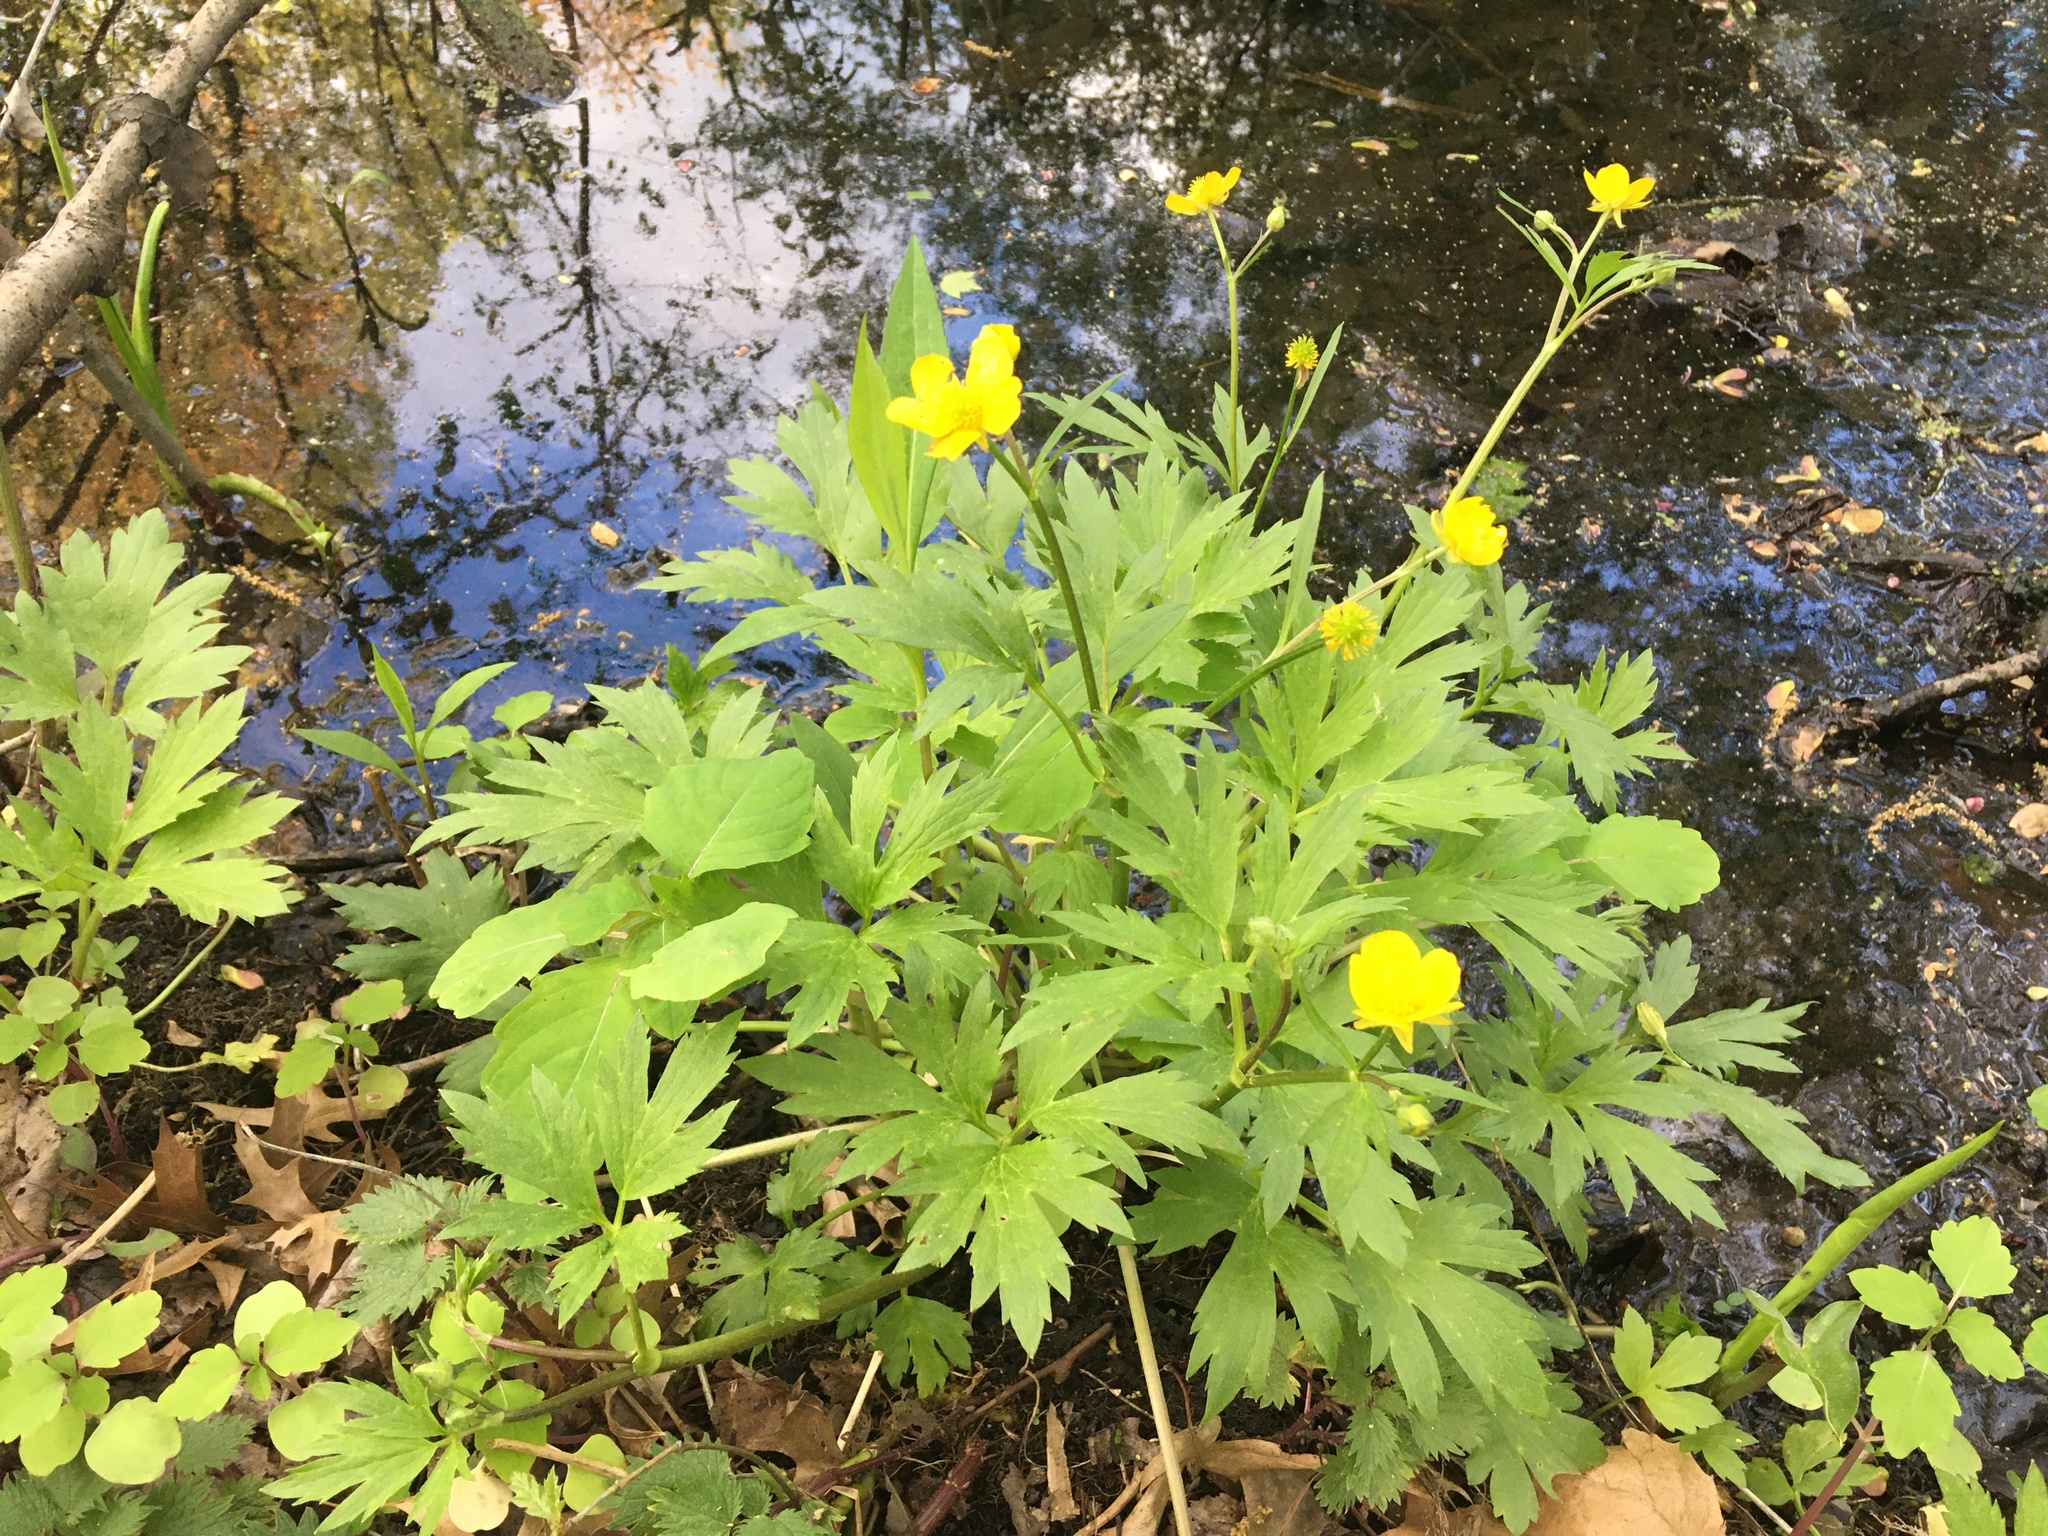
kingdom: Plantae
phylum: Tracheophyta
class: Magnoliopsida
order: Ranunculales
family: Ranunculaceae
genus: Ranunculus
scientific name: Ranunculus hispidus
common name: Bristly buttercup
